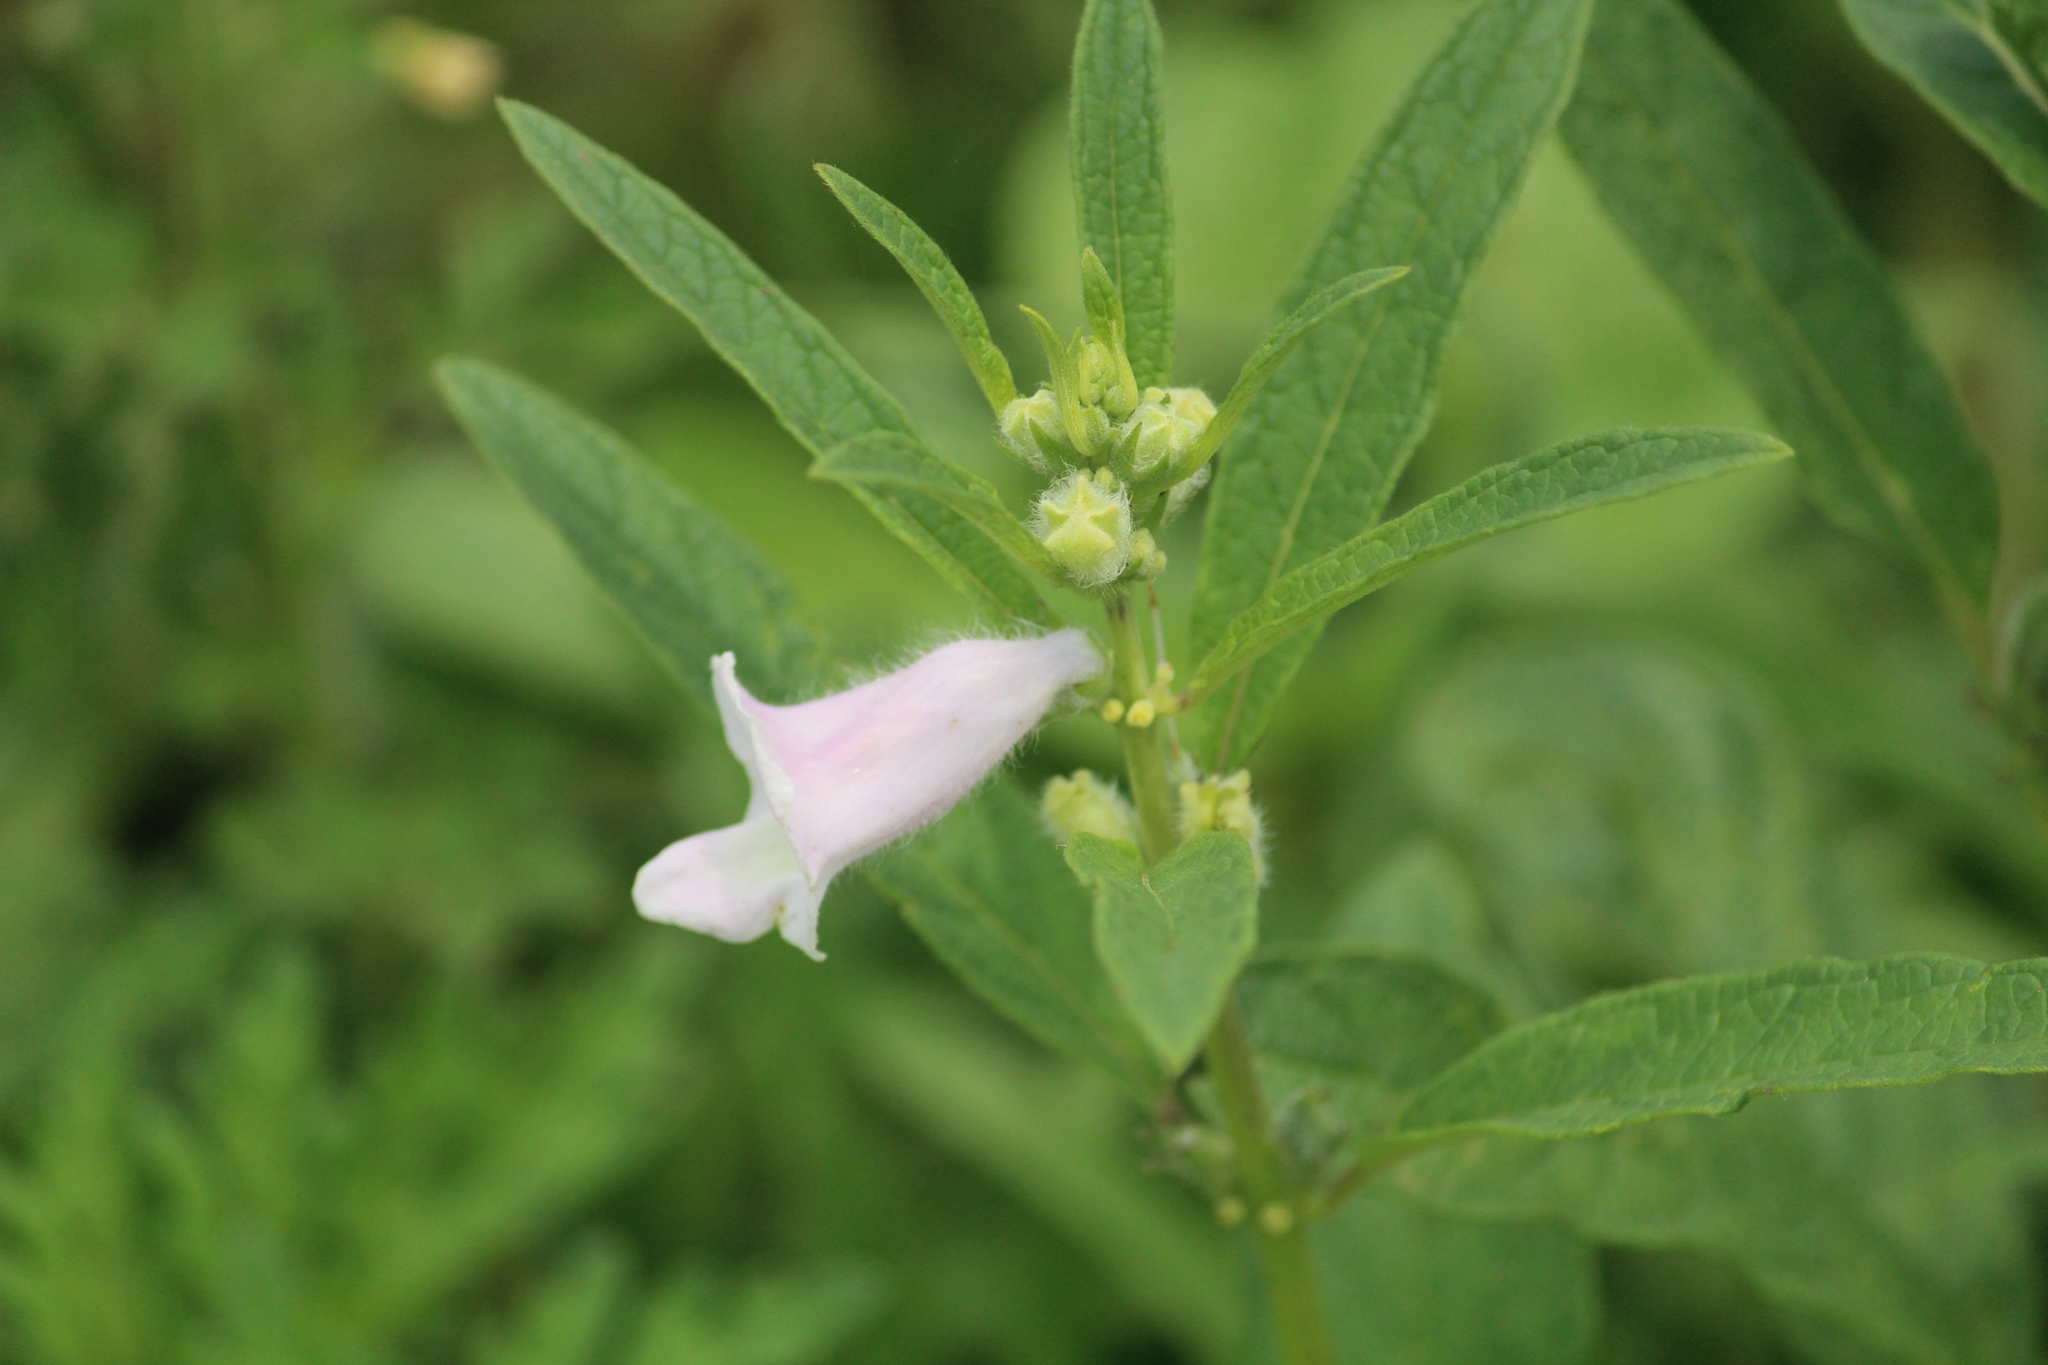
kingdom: Plantae
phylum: Tracheophyta
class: Magnoliopsida
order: Lamiales
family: Pedaliaceae
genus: Sesamum
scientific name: Sesamum indicum
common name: Sesame
